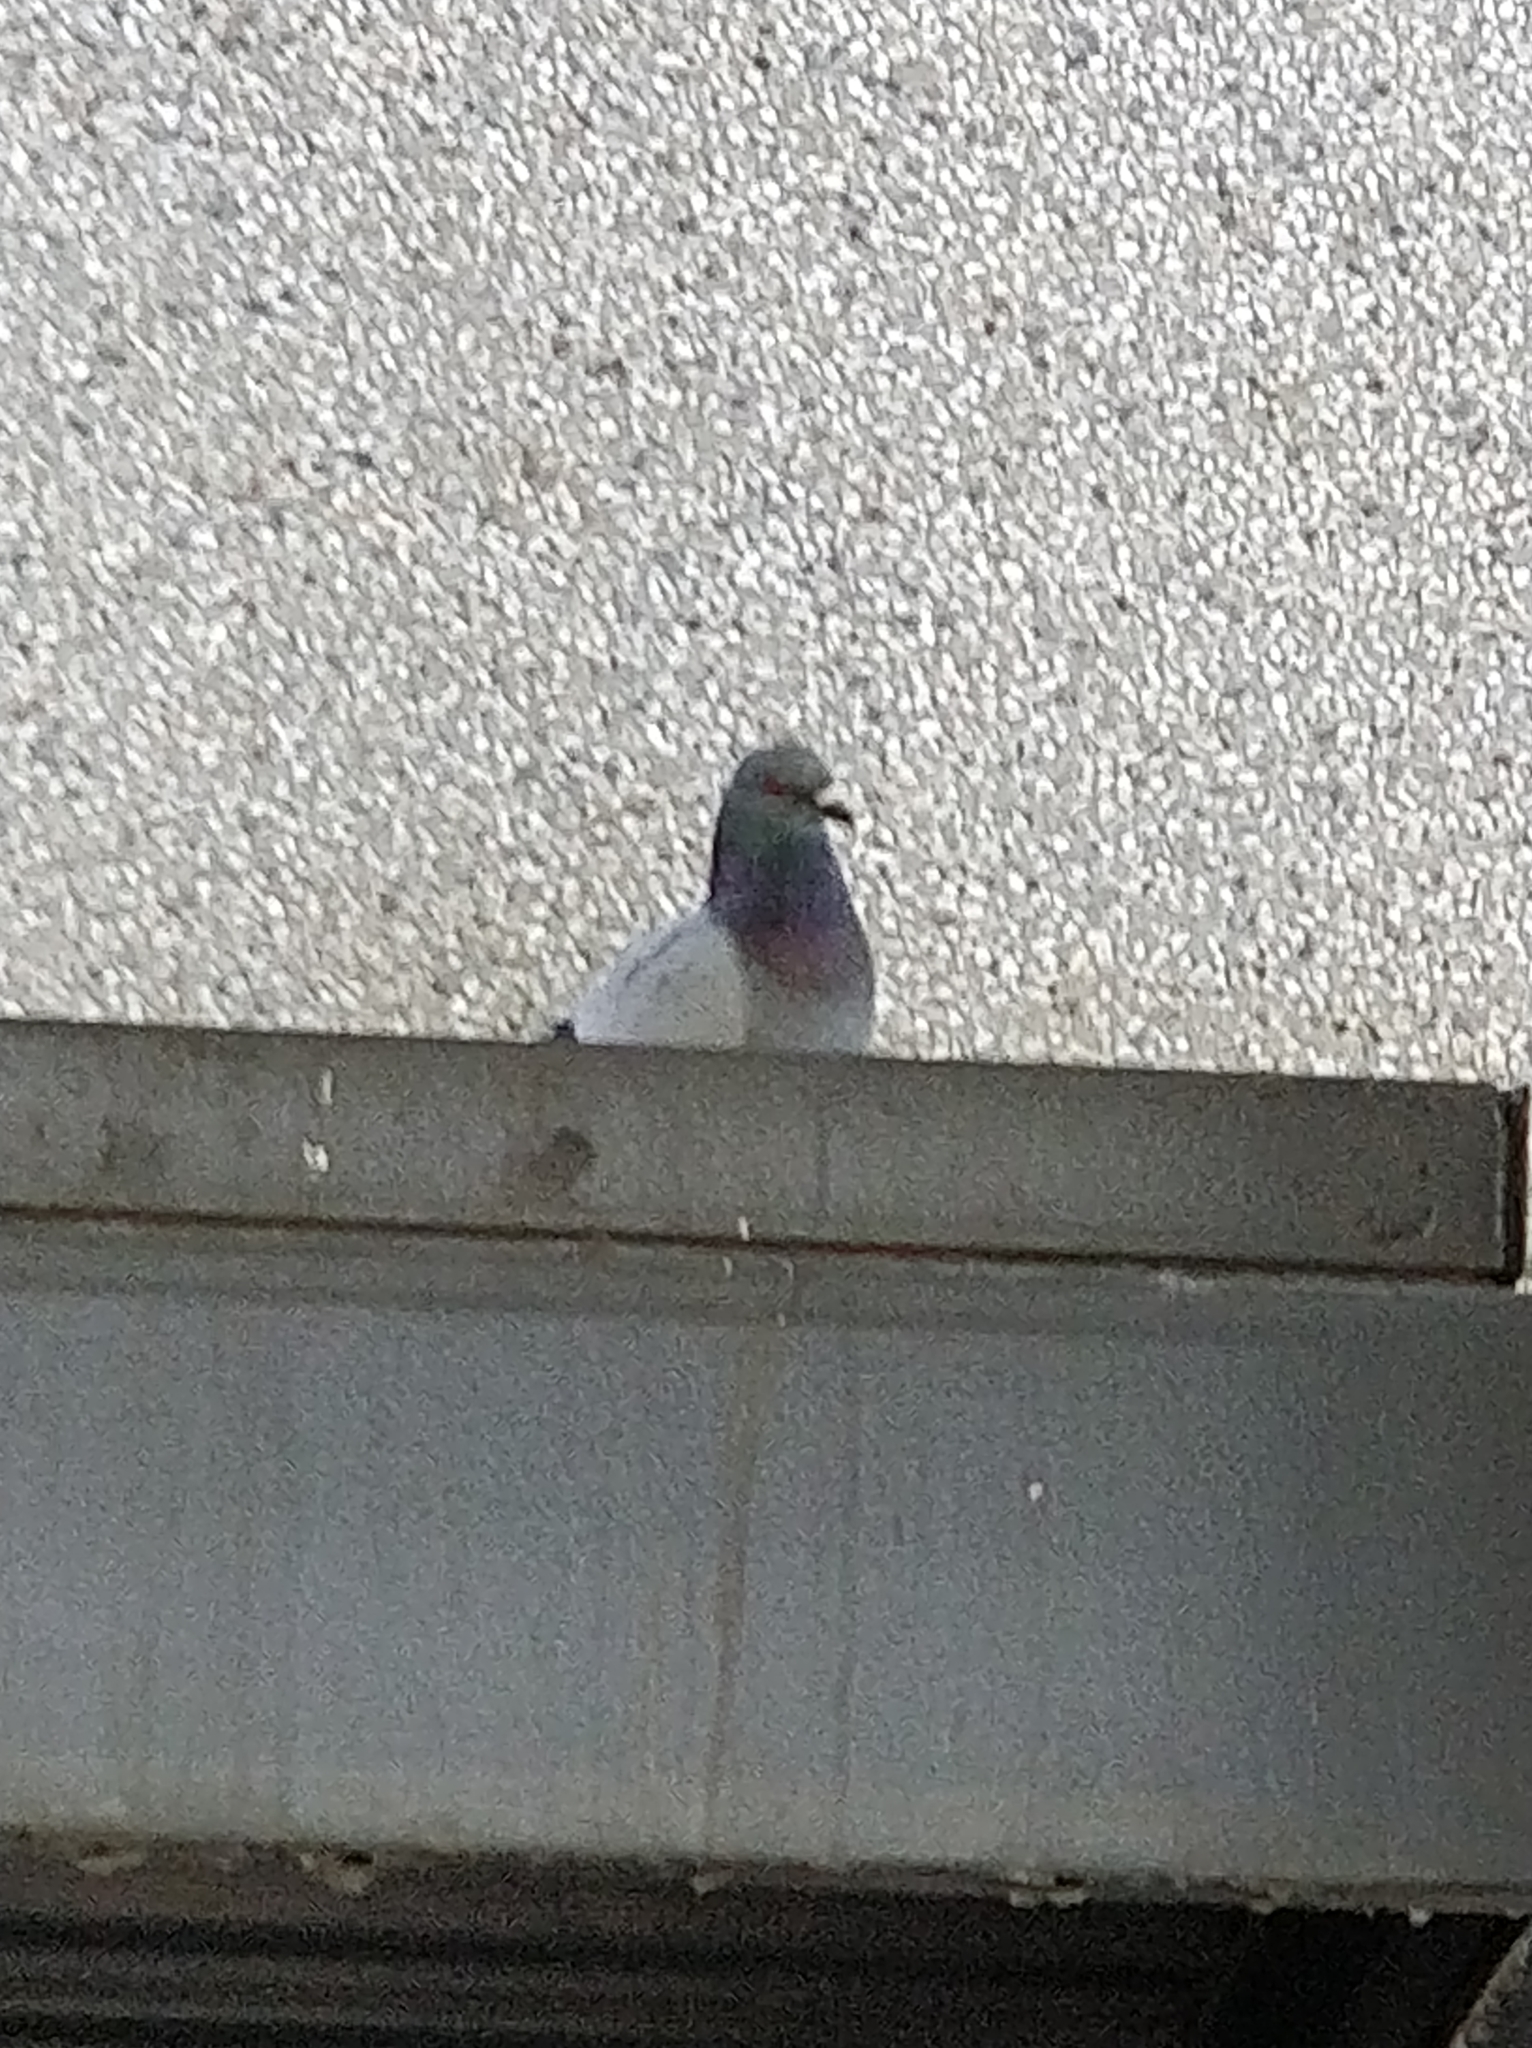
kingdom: Animalia
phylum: Chordata
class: Aves
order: Columbiformes
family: Columbidae
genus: Columba
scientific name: Columba livia
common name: Rock pigeon
